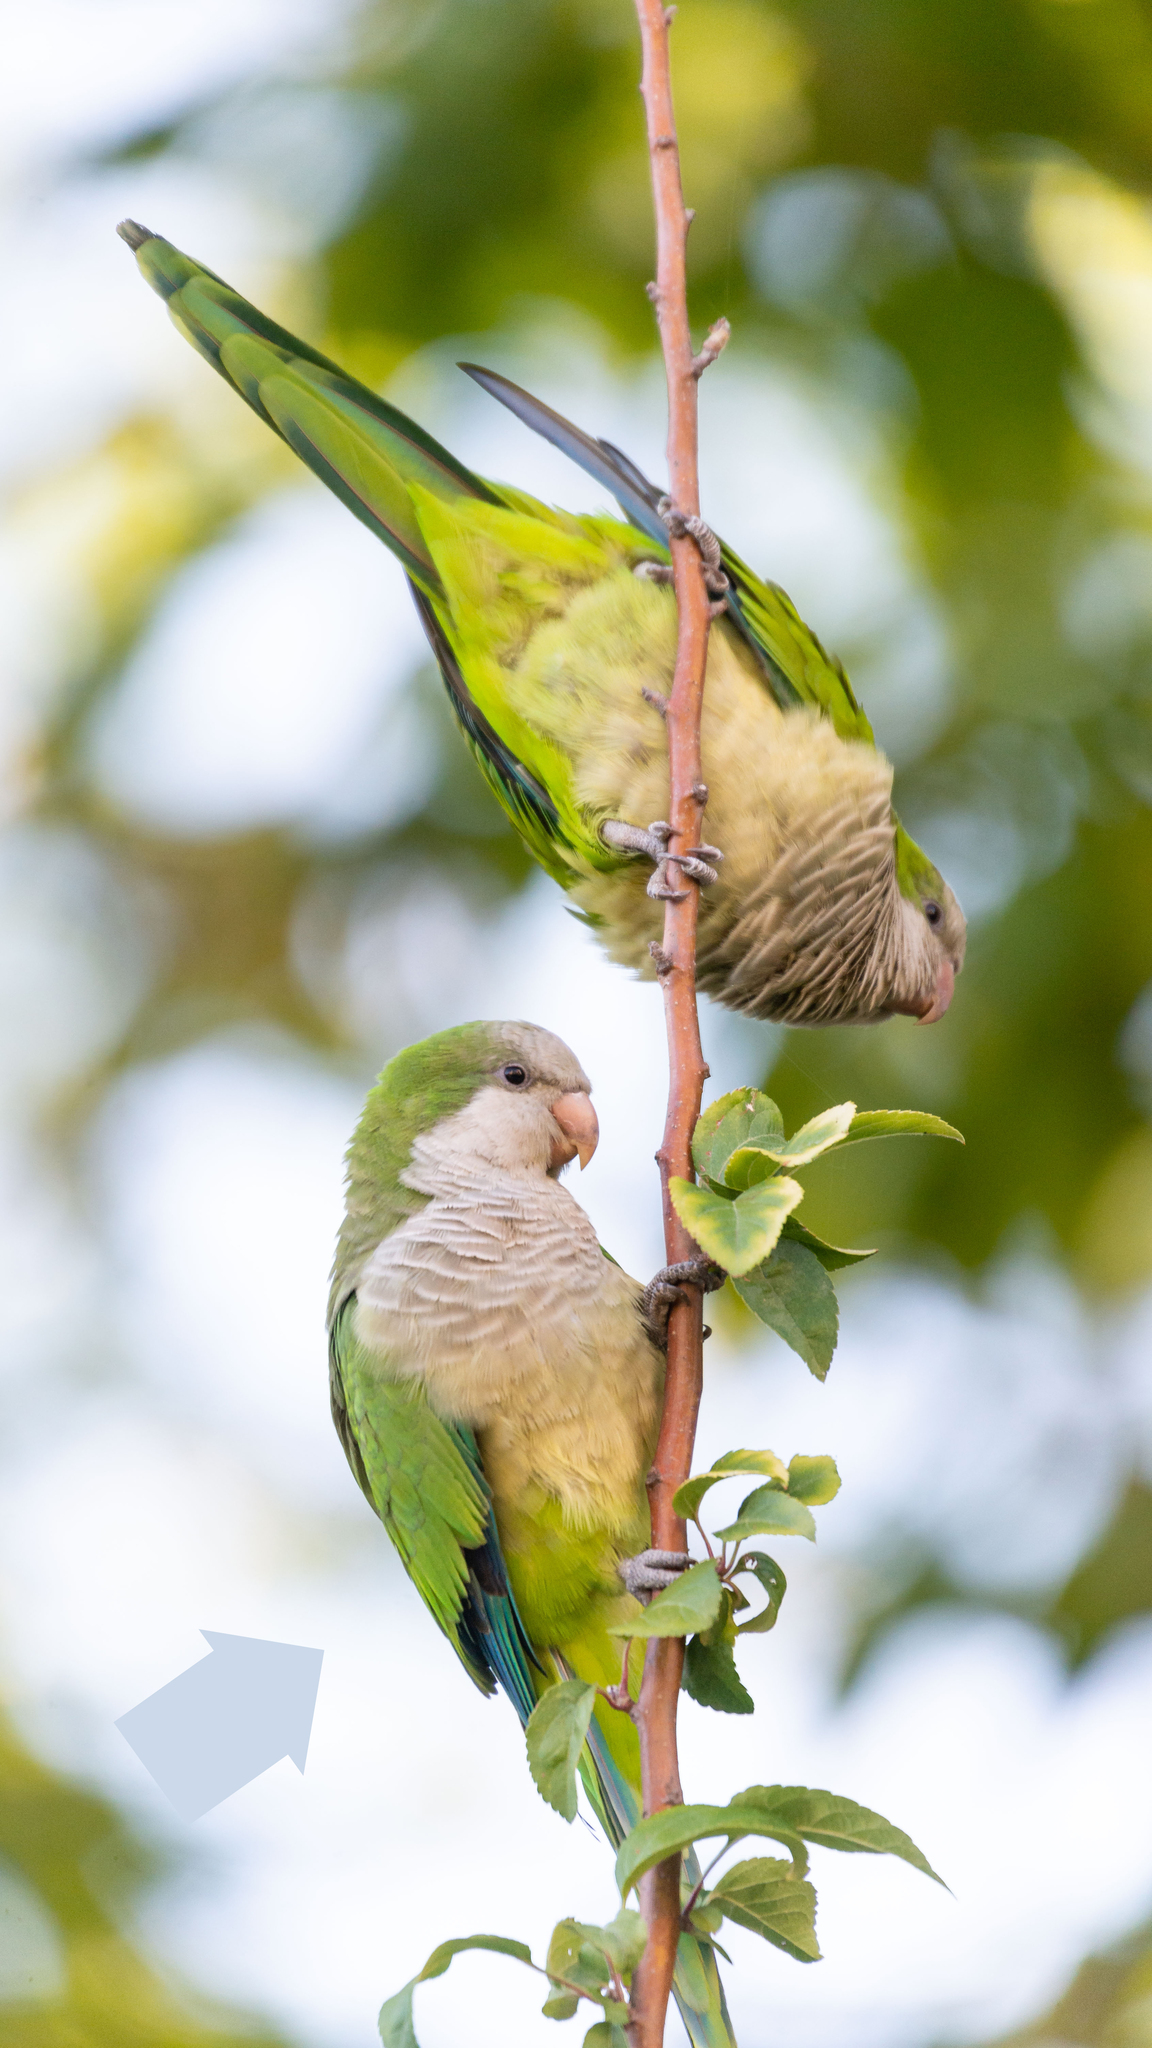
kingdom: Animalia
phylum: Chordata
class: Aves
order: Psittaciformes
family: Psittacidae
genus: Myiopsitta
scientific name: Myiopsitta monachus
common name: Monk parakeet
